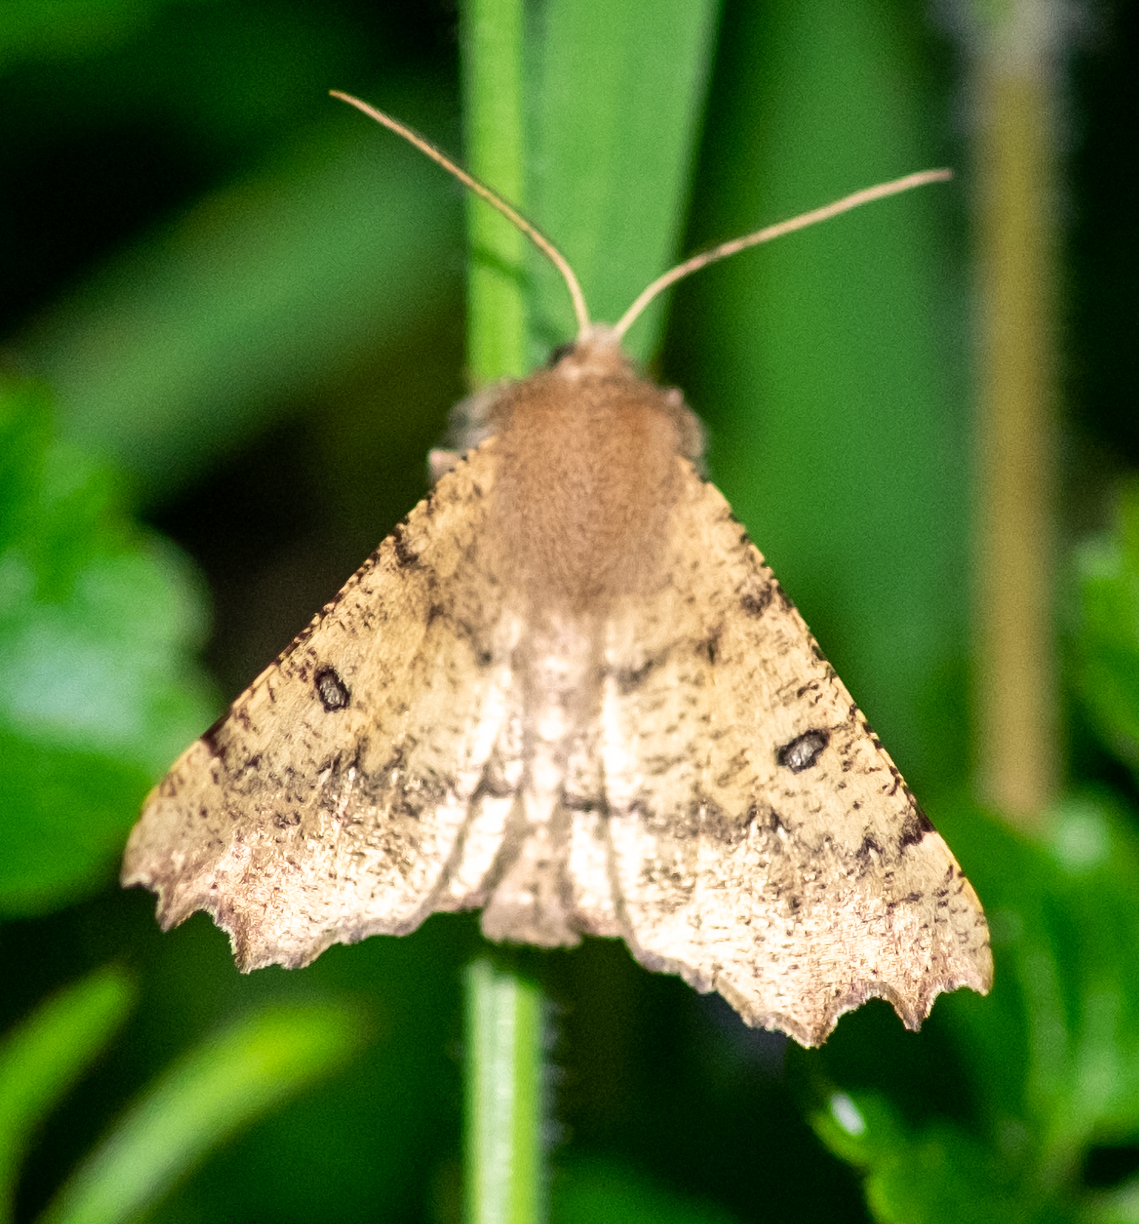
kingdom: Animalia
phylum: Arthropoda
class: Insecta
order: Lepidoptera
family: Geometridae
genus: Odontopera
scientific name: Odontopera bidentata
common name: Scalloped hazel
